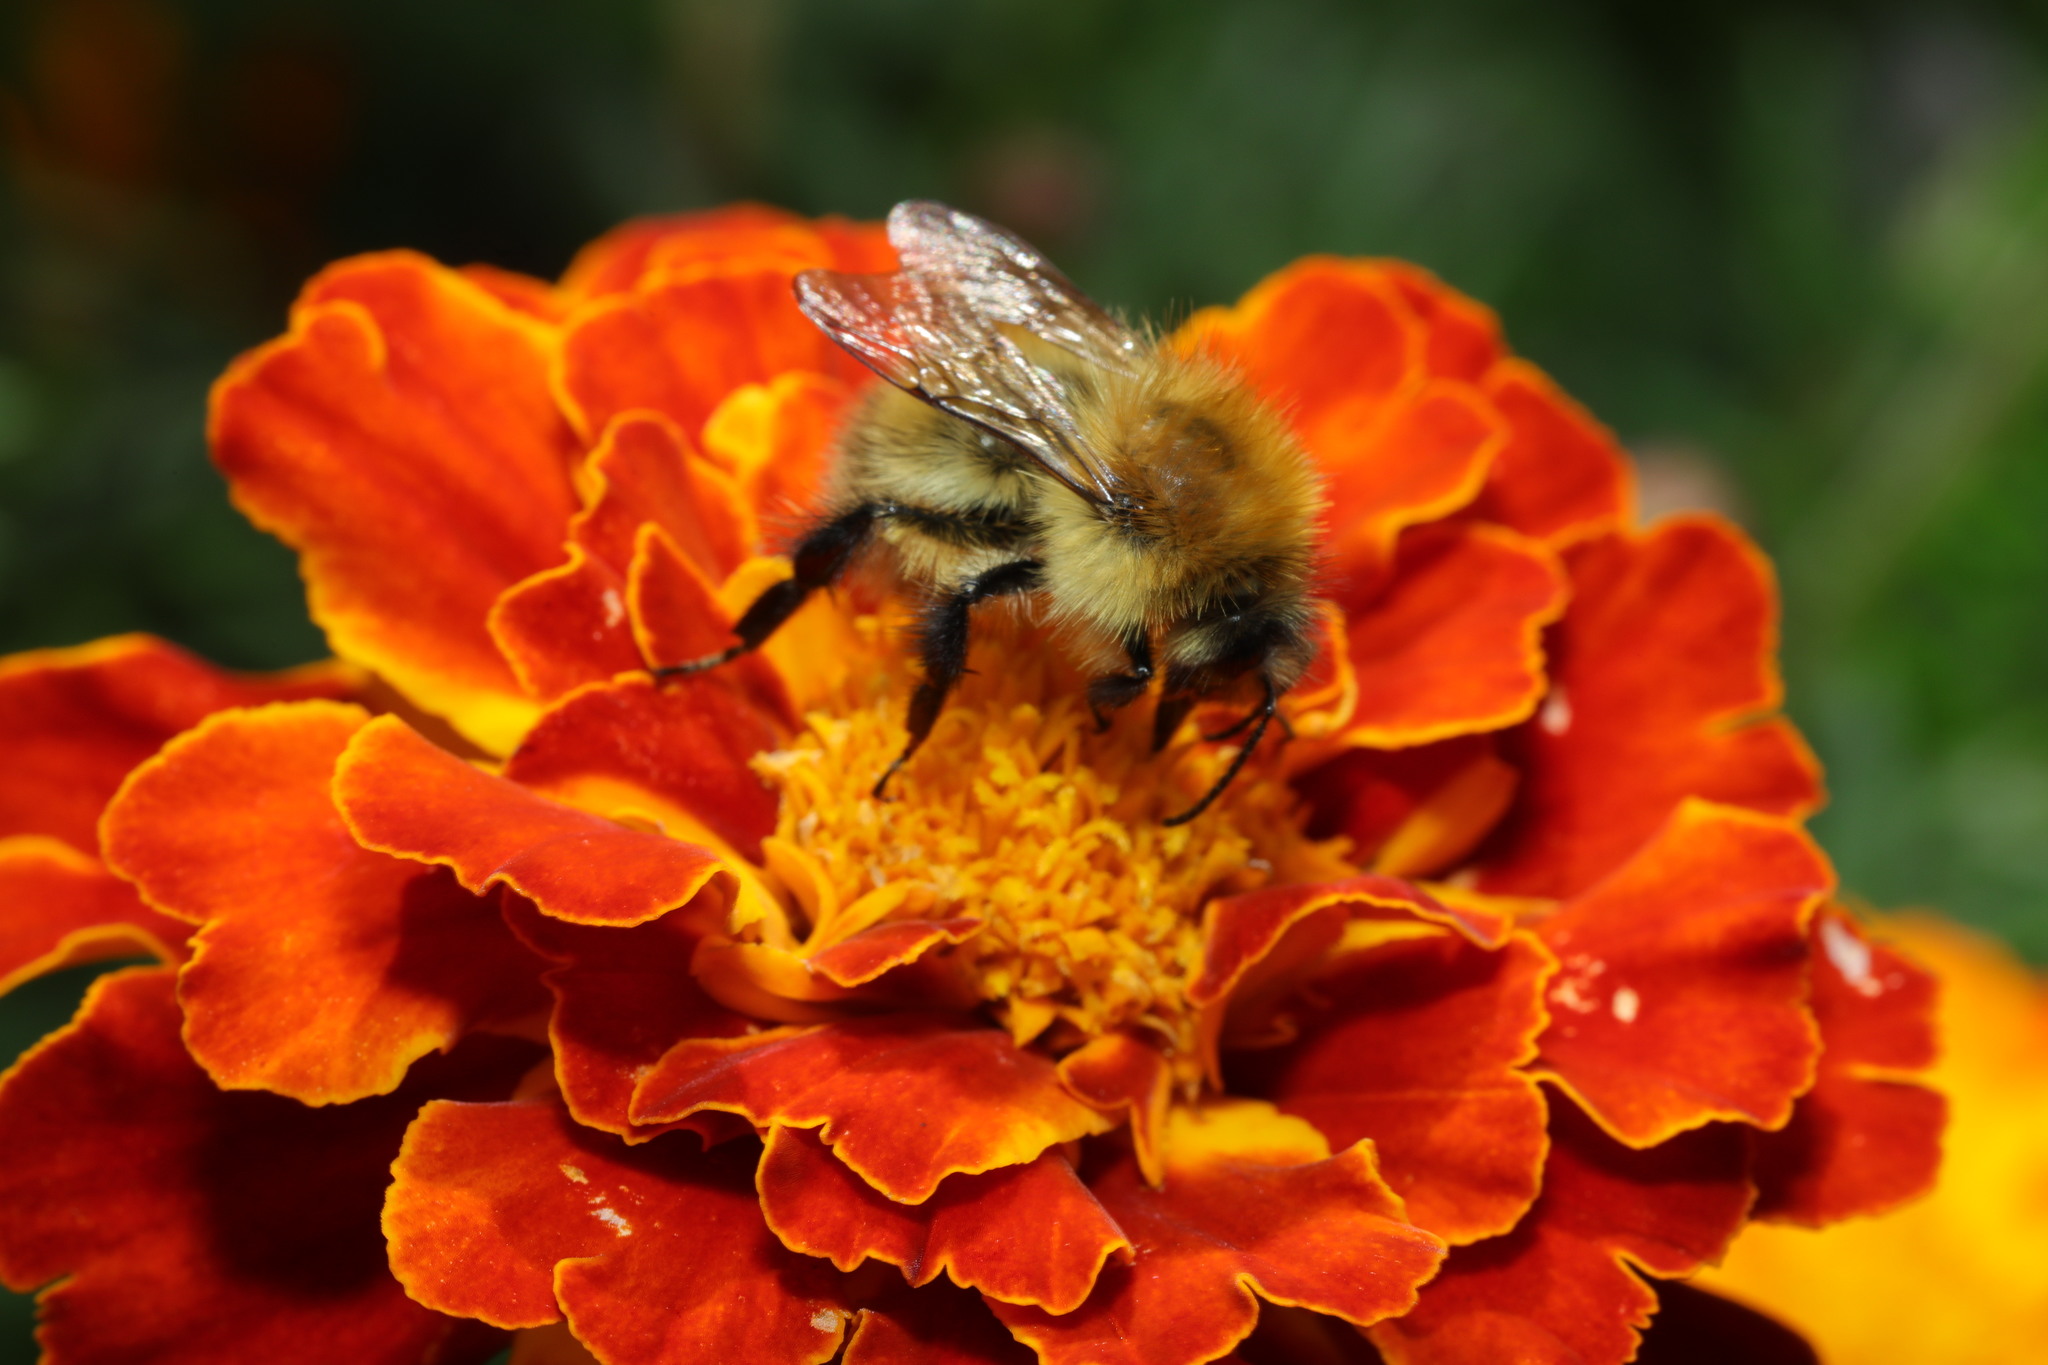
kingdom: Animalia
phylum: Arthropoda
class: Insecta
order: Hymenoptera
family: Apidae
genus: Bombus
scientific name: Bombus pascuorum
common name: Common carder bee
